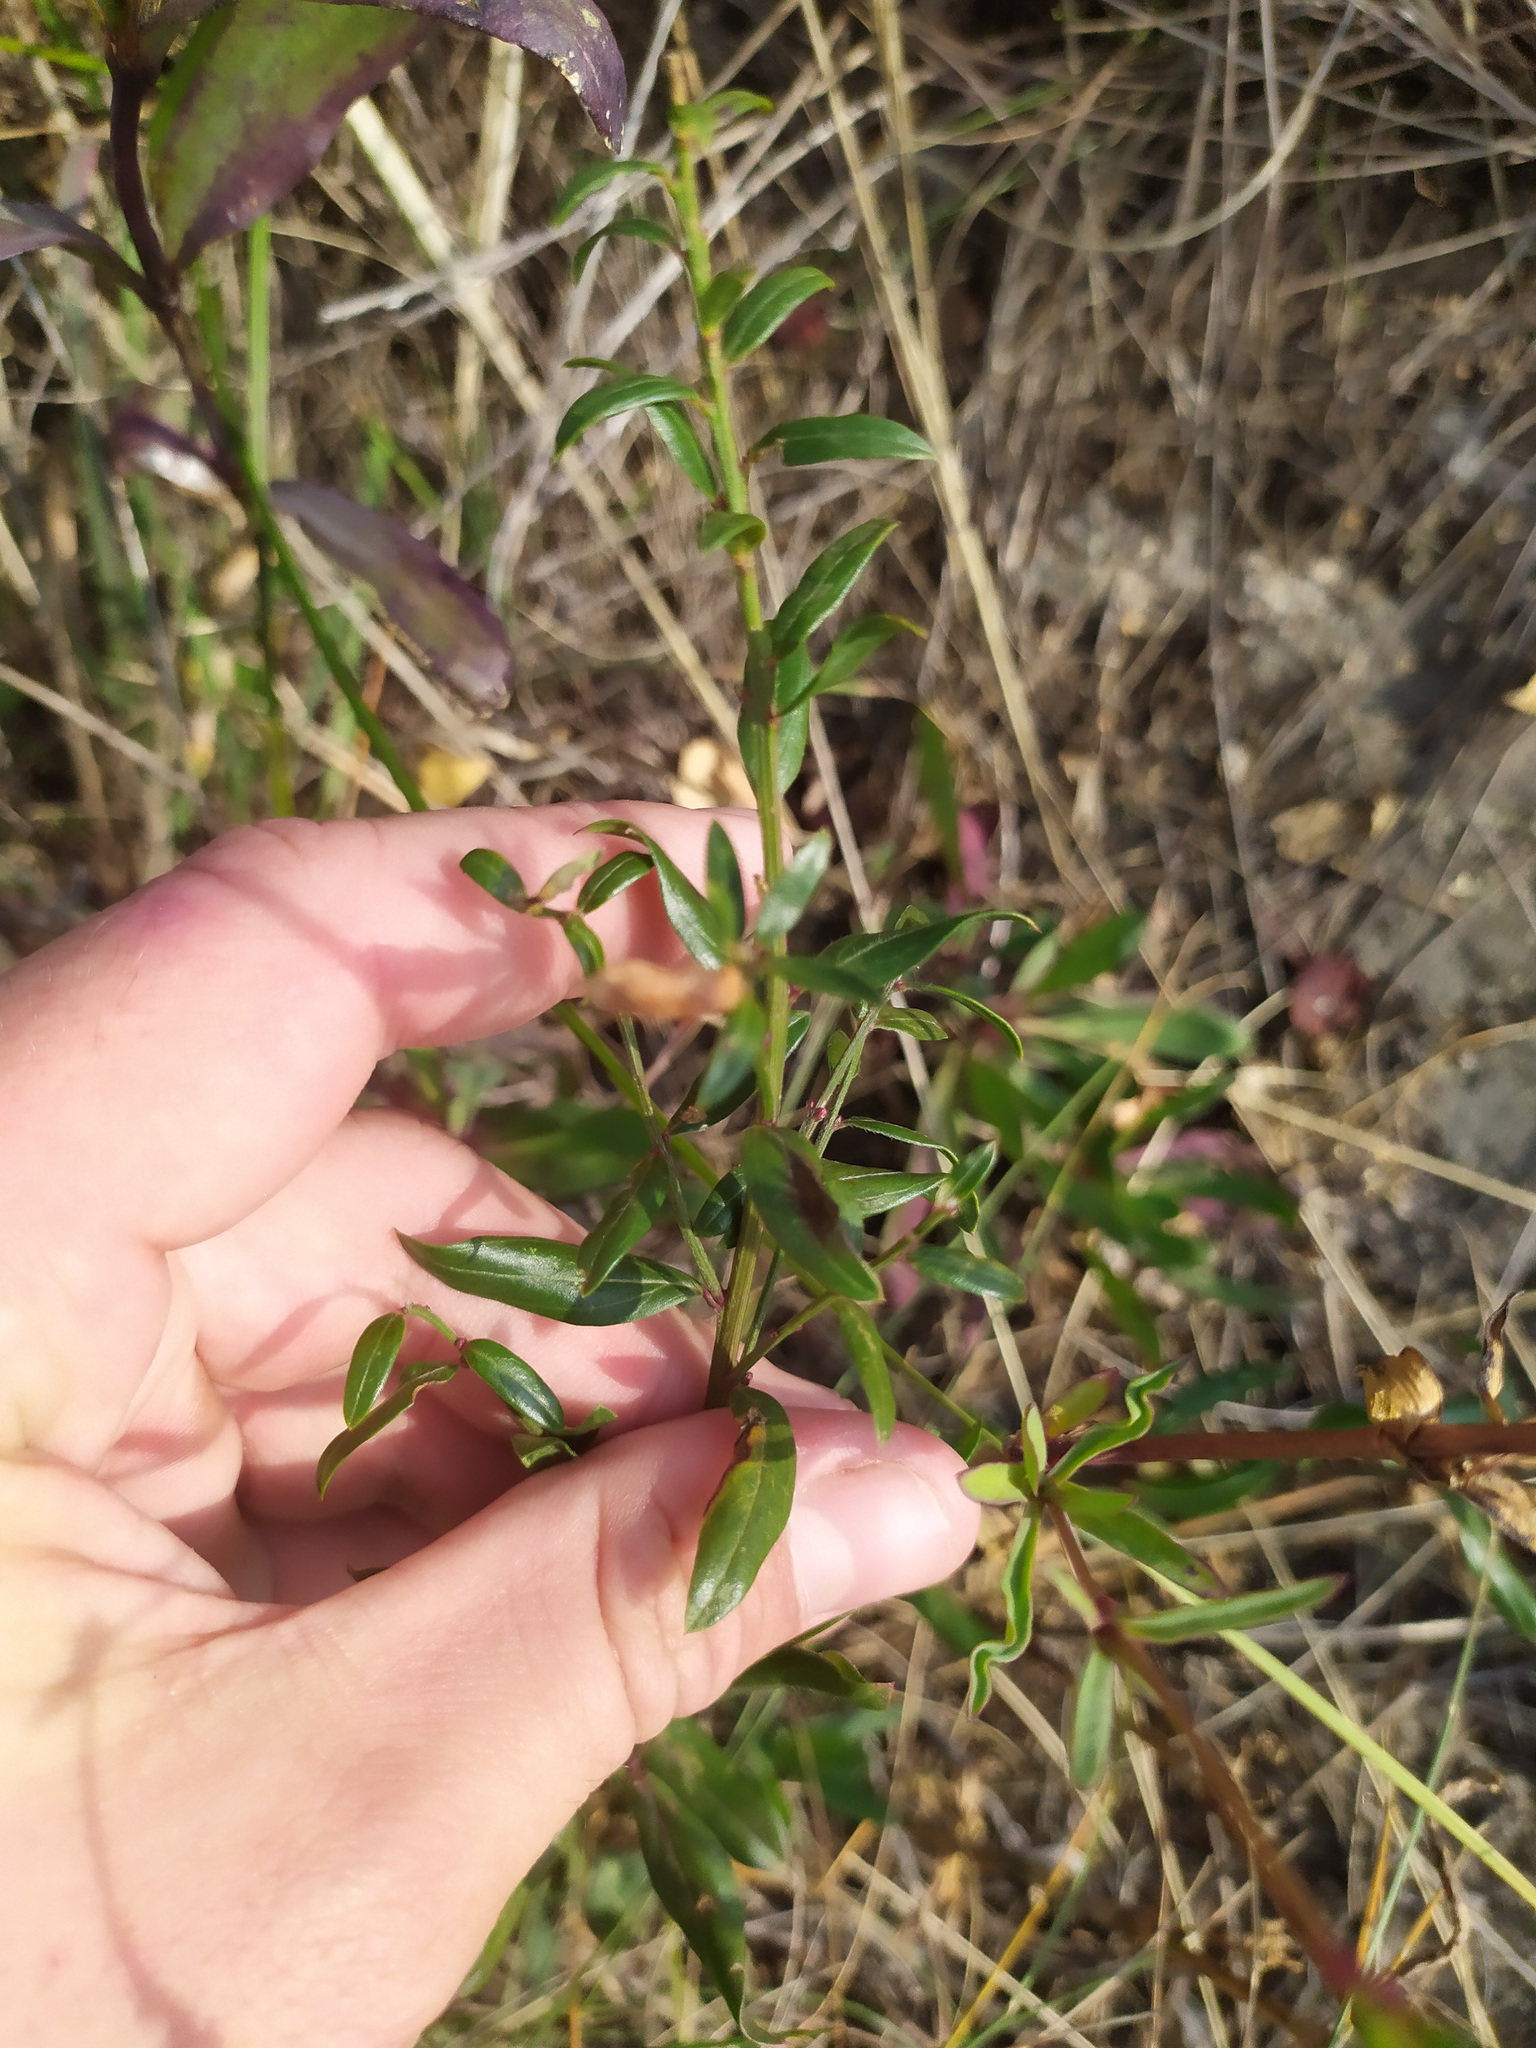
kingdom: Plantae
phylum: Tracheophyta
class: Magnoliopsida
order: Fabales
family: Fabaceae
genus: Genista
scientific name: Genista tinctoria
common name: Dyer's greenweed
